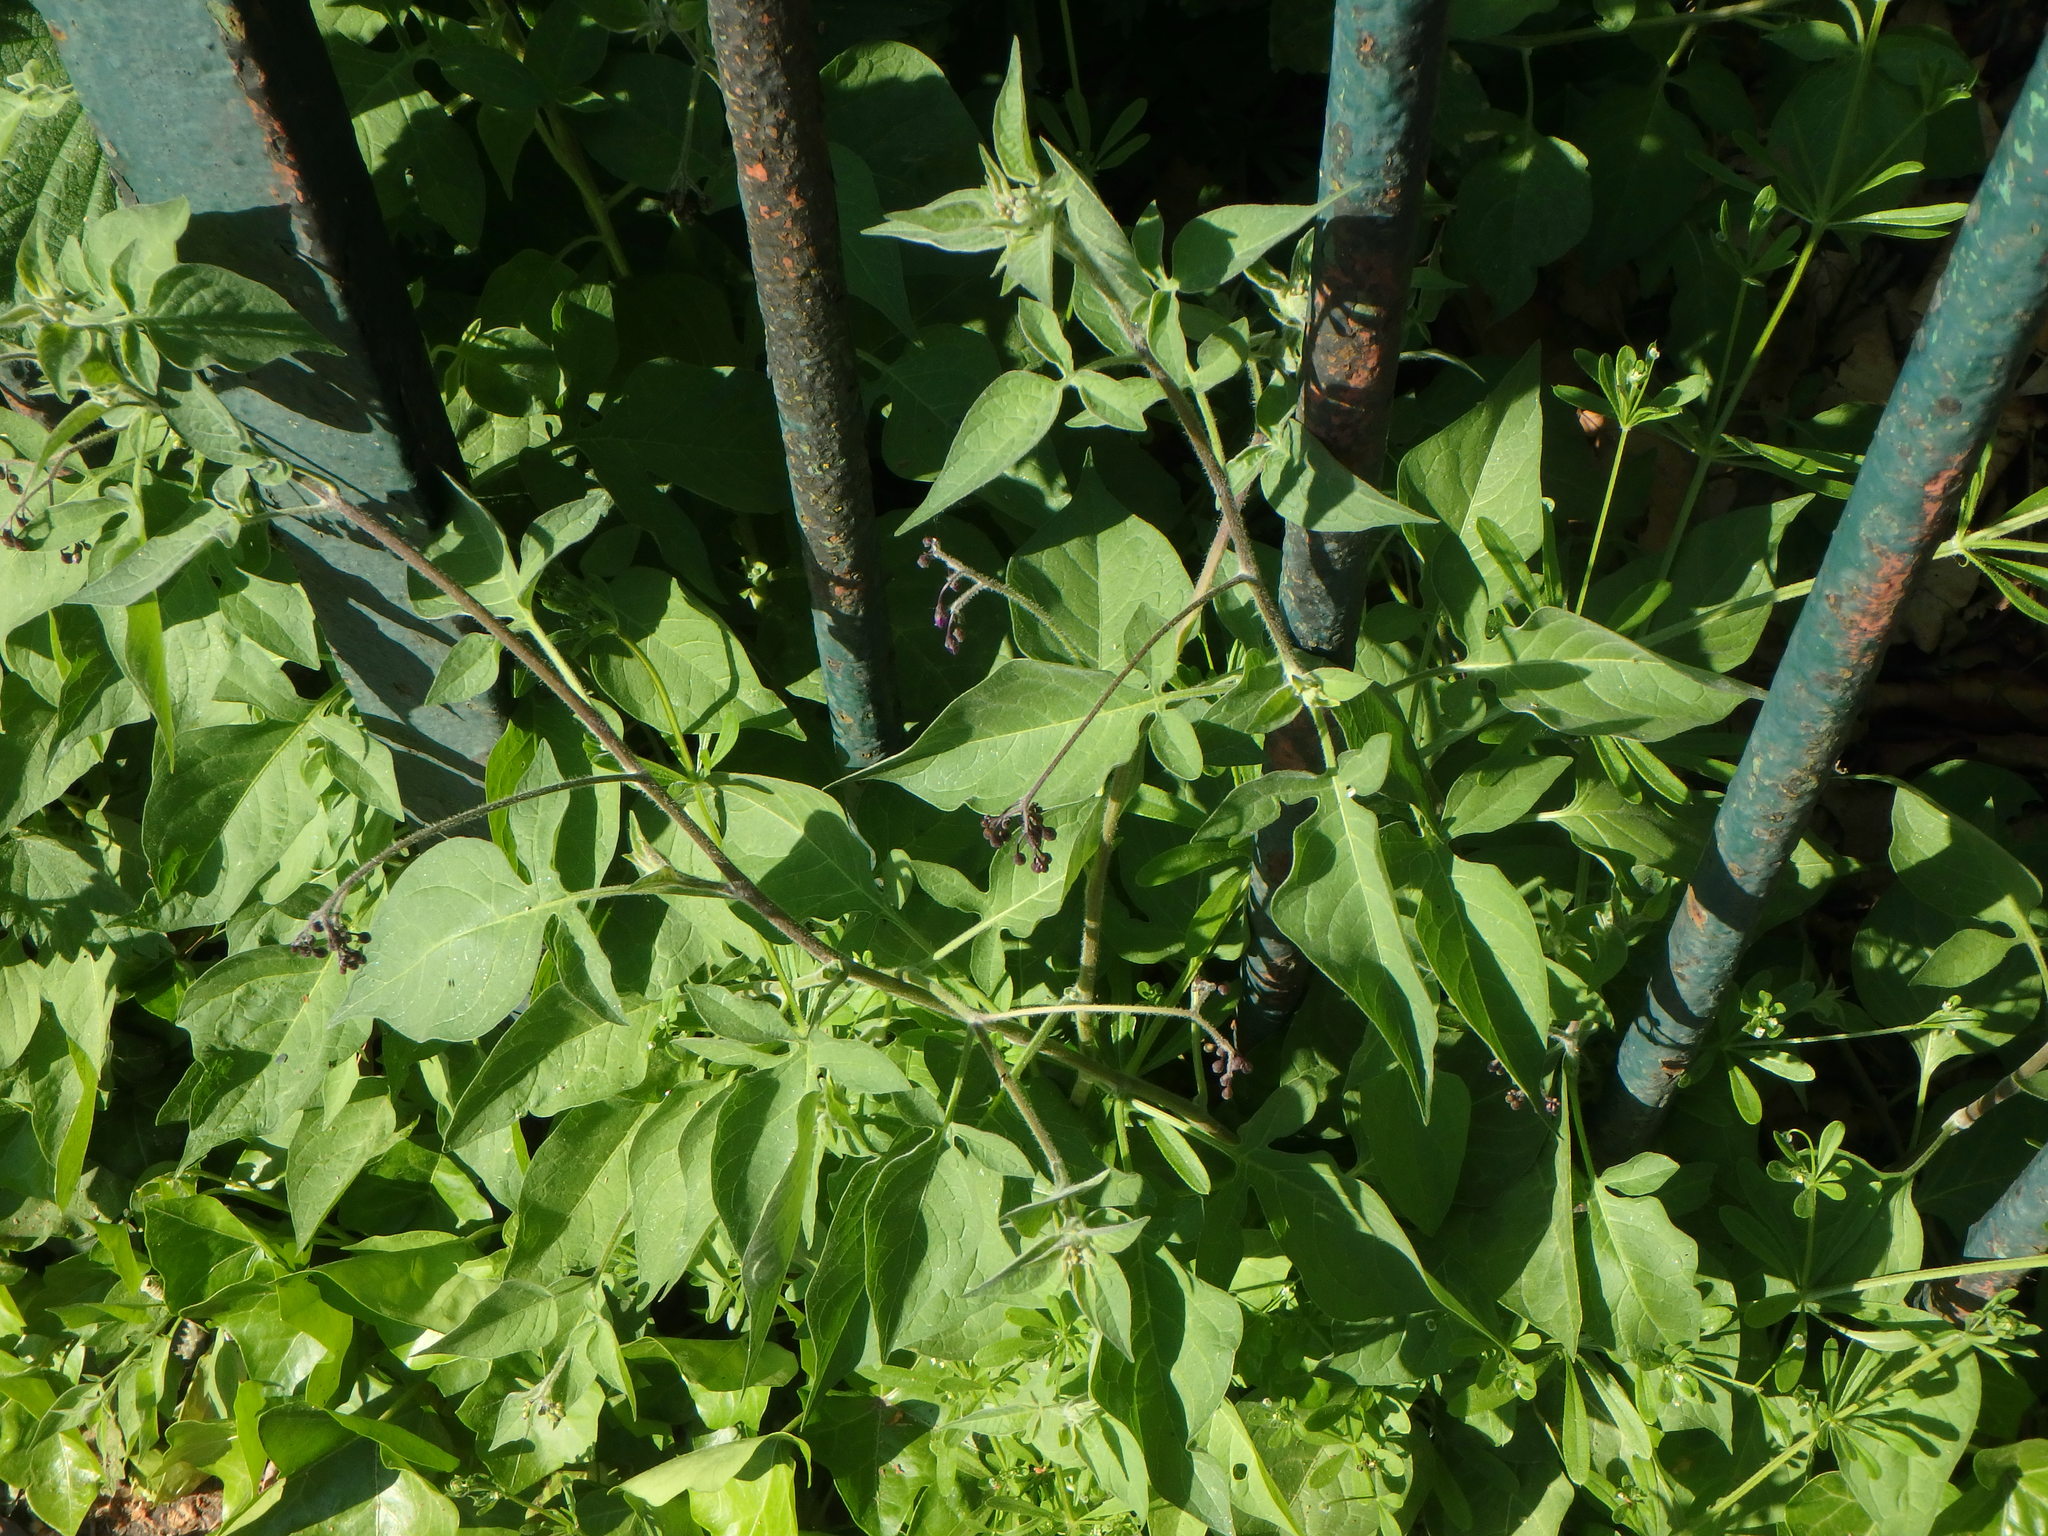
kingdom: Plantae
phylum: Tracheophyta
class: Magnoliopsida
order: Solanales
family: Solanaceae
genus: Solanum
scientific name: Solanum dulcamara
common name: Climbing nightshade
